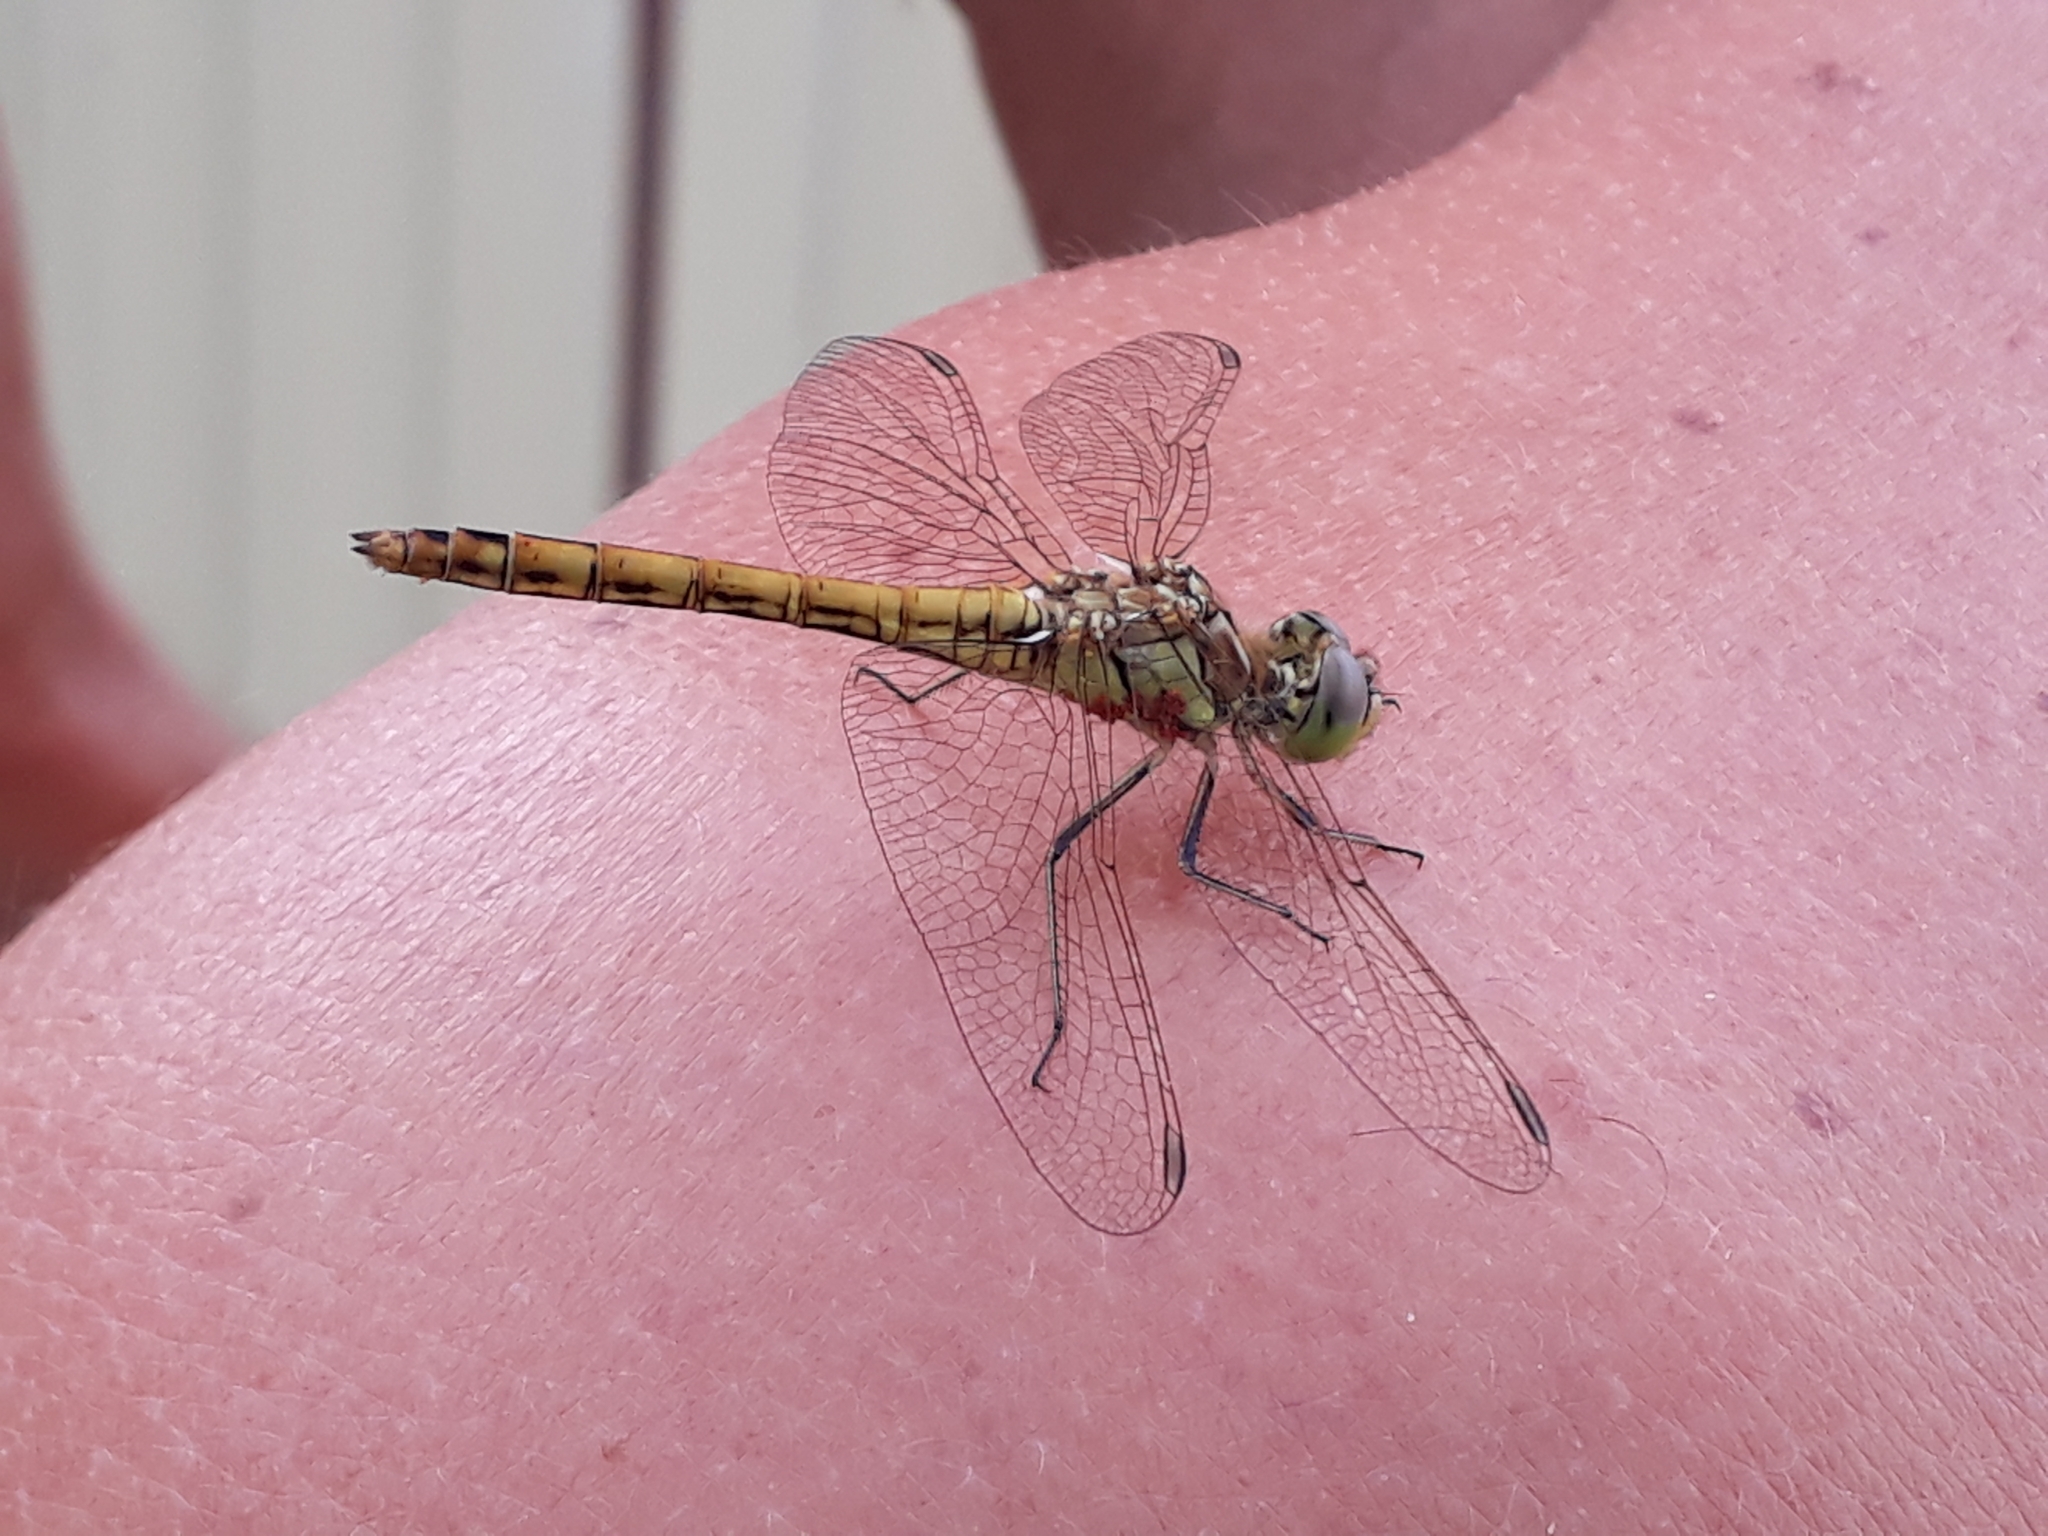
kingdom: Animalia
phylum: Arthropoda
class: Insecta
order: Odonata
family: Libellulidae
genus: Sympetrum
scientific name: Sympetrum vulgatum
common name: Vagrant darter
